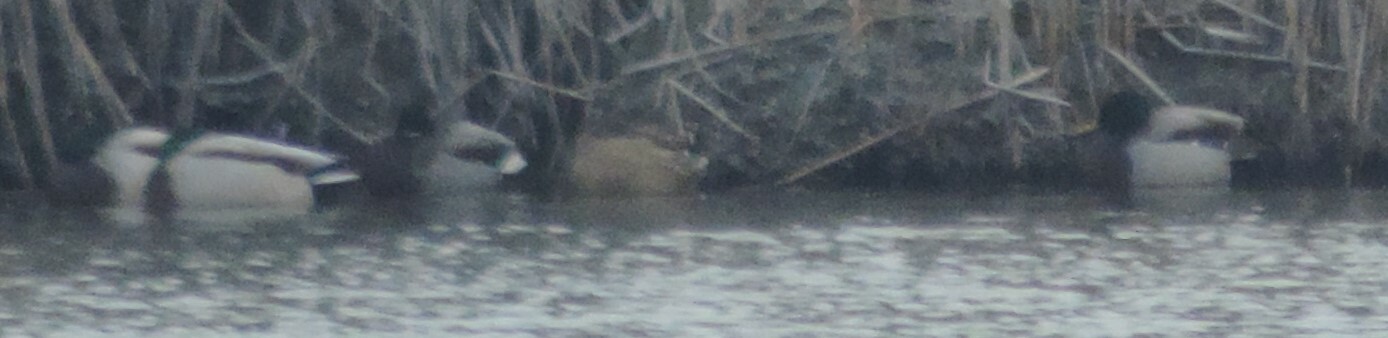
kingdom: Animalia
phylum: Chordata
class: Aves
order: Anseriformes
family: Anatidae
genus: Anas
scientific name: Anas platyrhynchos
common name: Mallard
